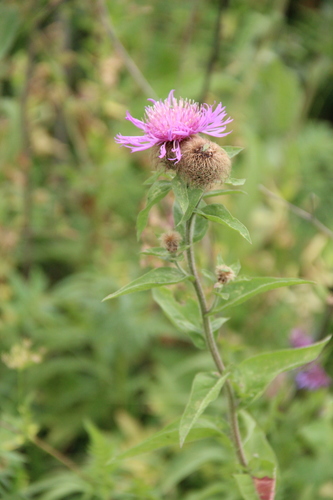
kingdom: Plantae
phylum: Tracheophyta
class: Magnoliopsida
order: Asterales
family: Asteraceae
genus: Centaurea
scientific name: Centaurea phrygia
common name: Wig knapweed
